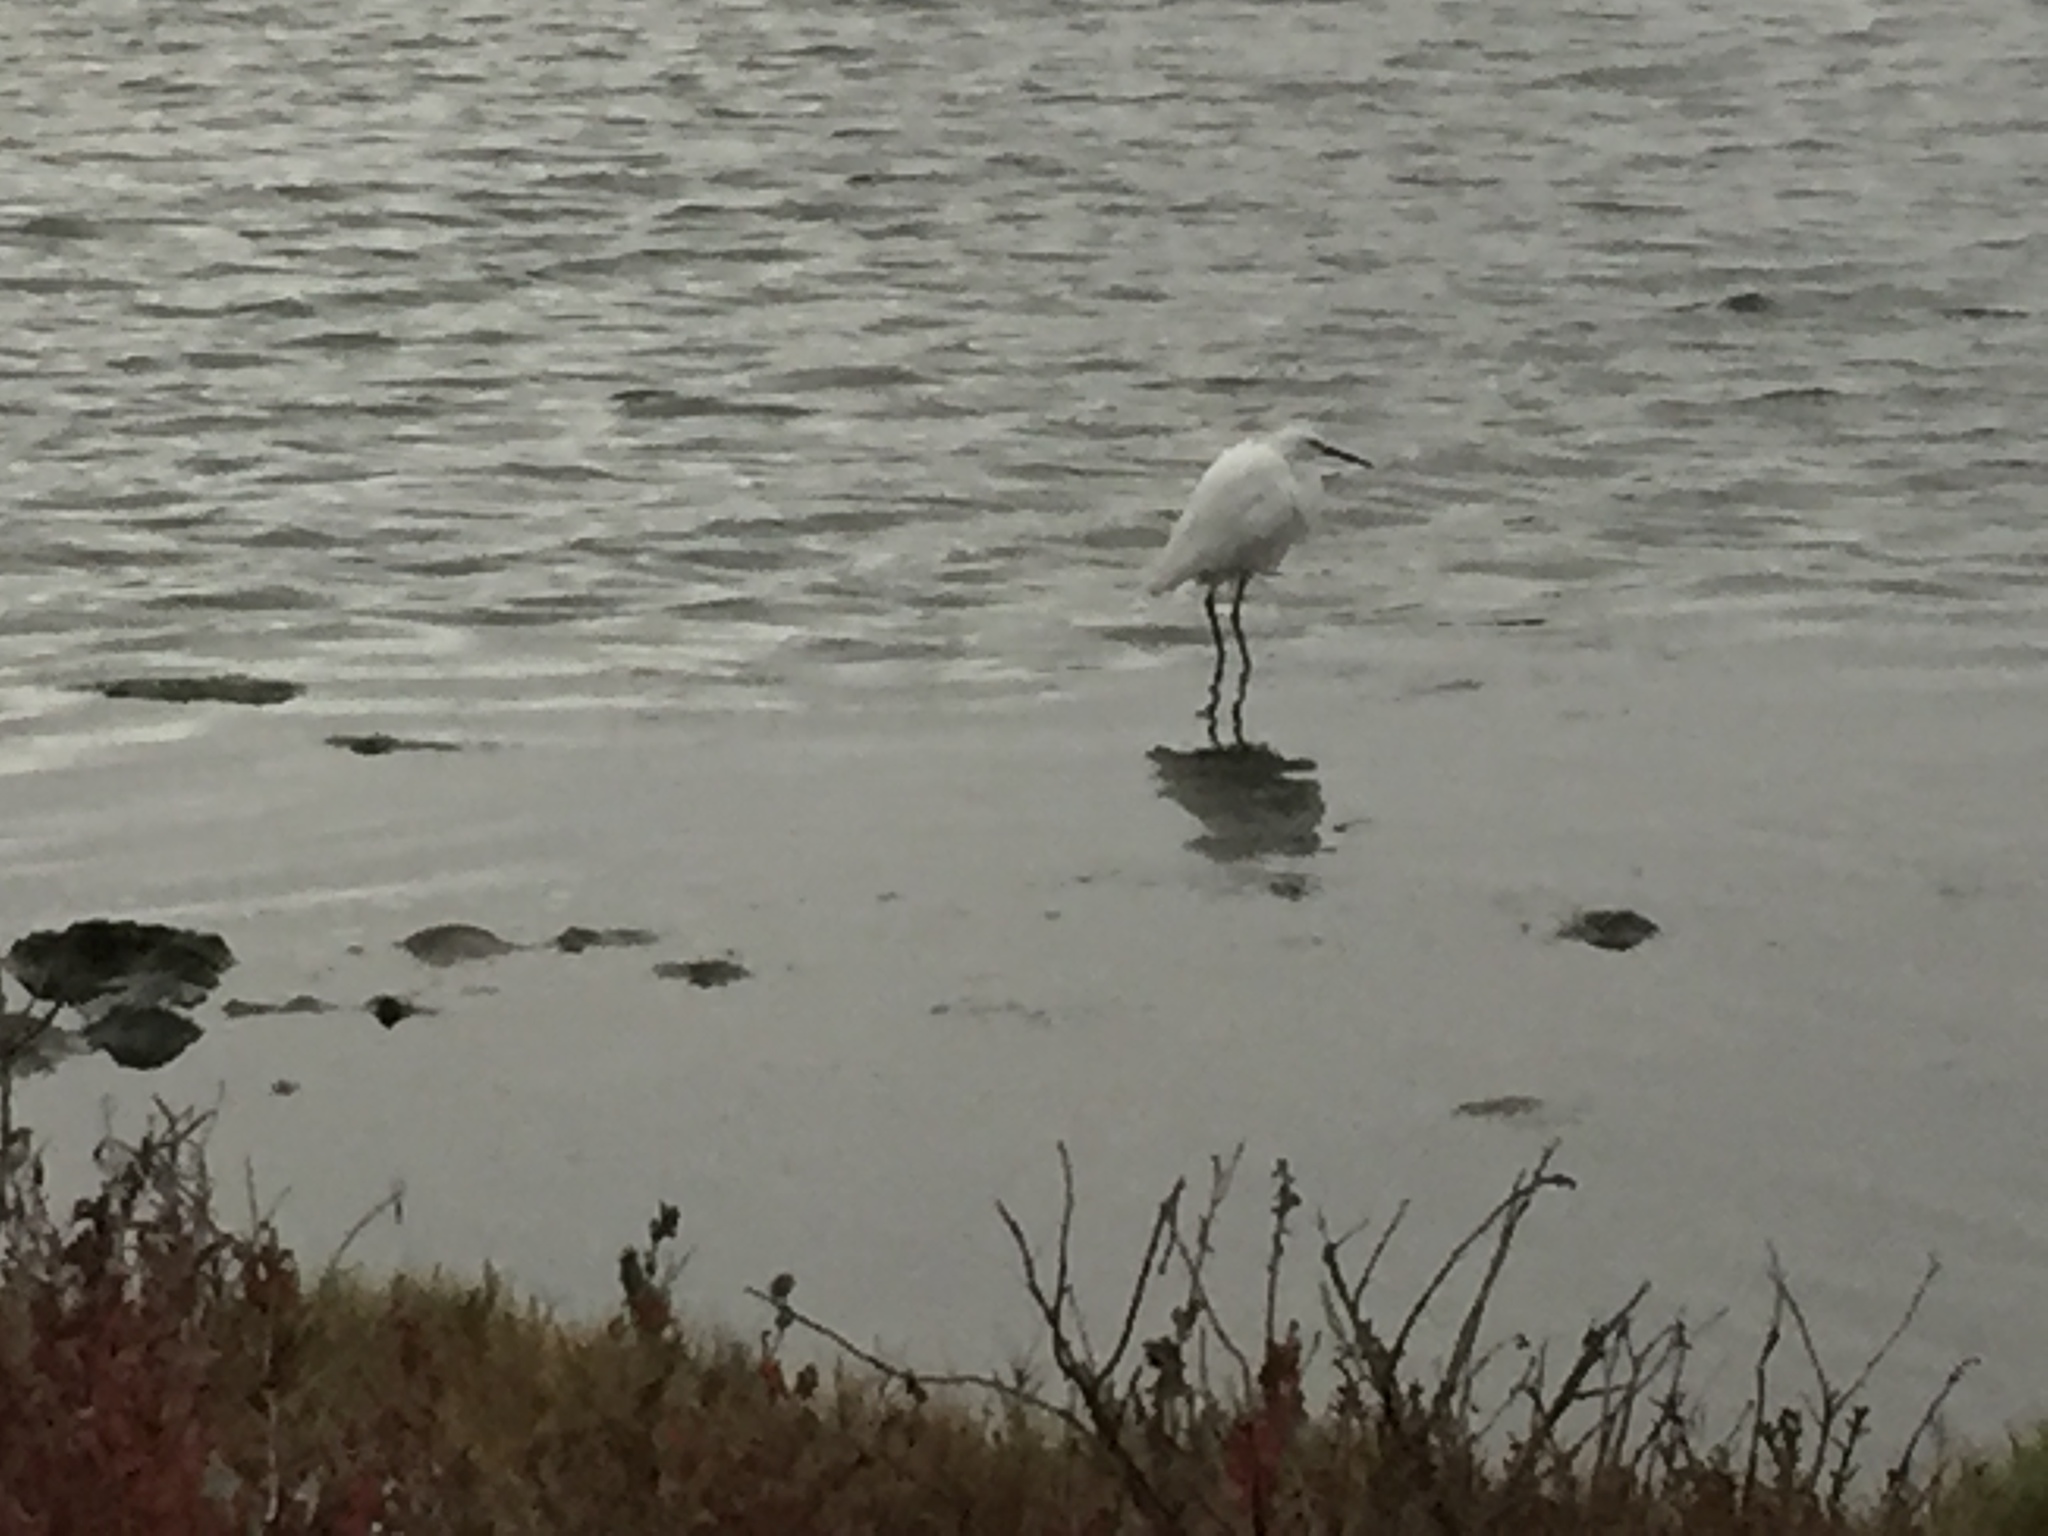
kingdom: Animalia
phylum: Chordata
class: Aves
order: Pelecaniformes
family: Ardeidae
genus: Egretta
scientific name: Egretta thula
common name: Snowy egret
